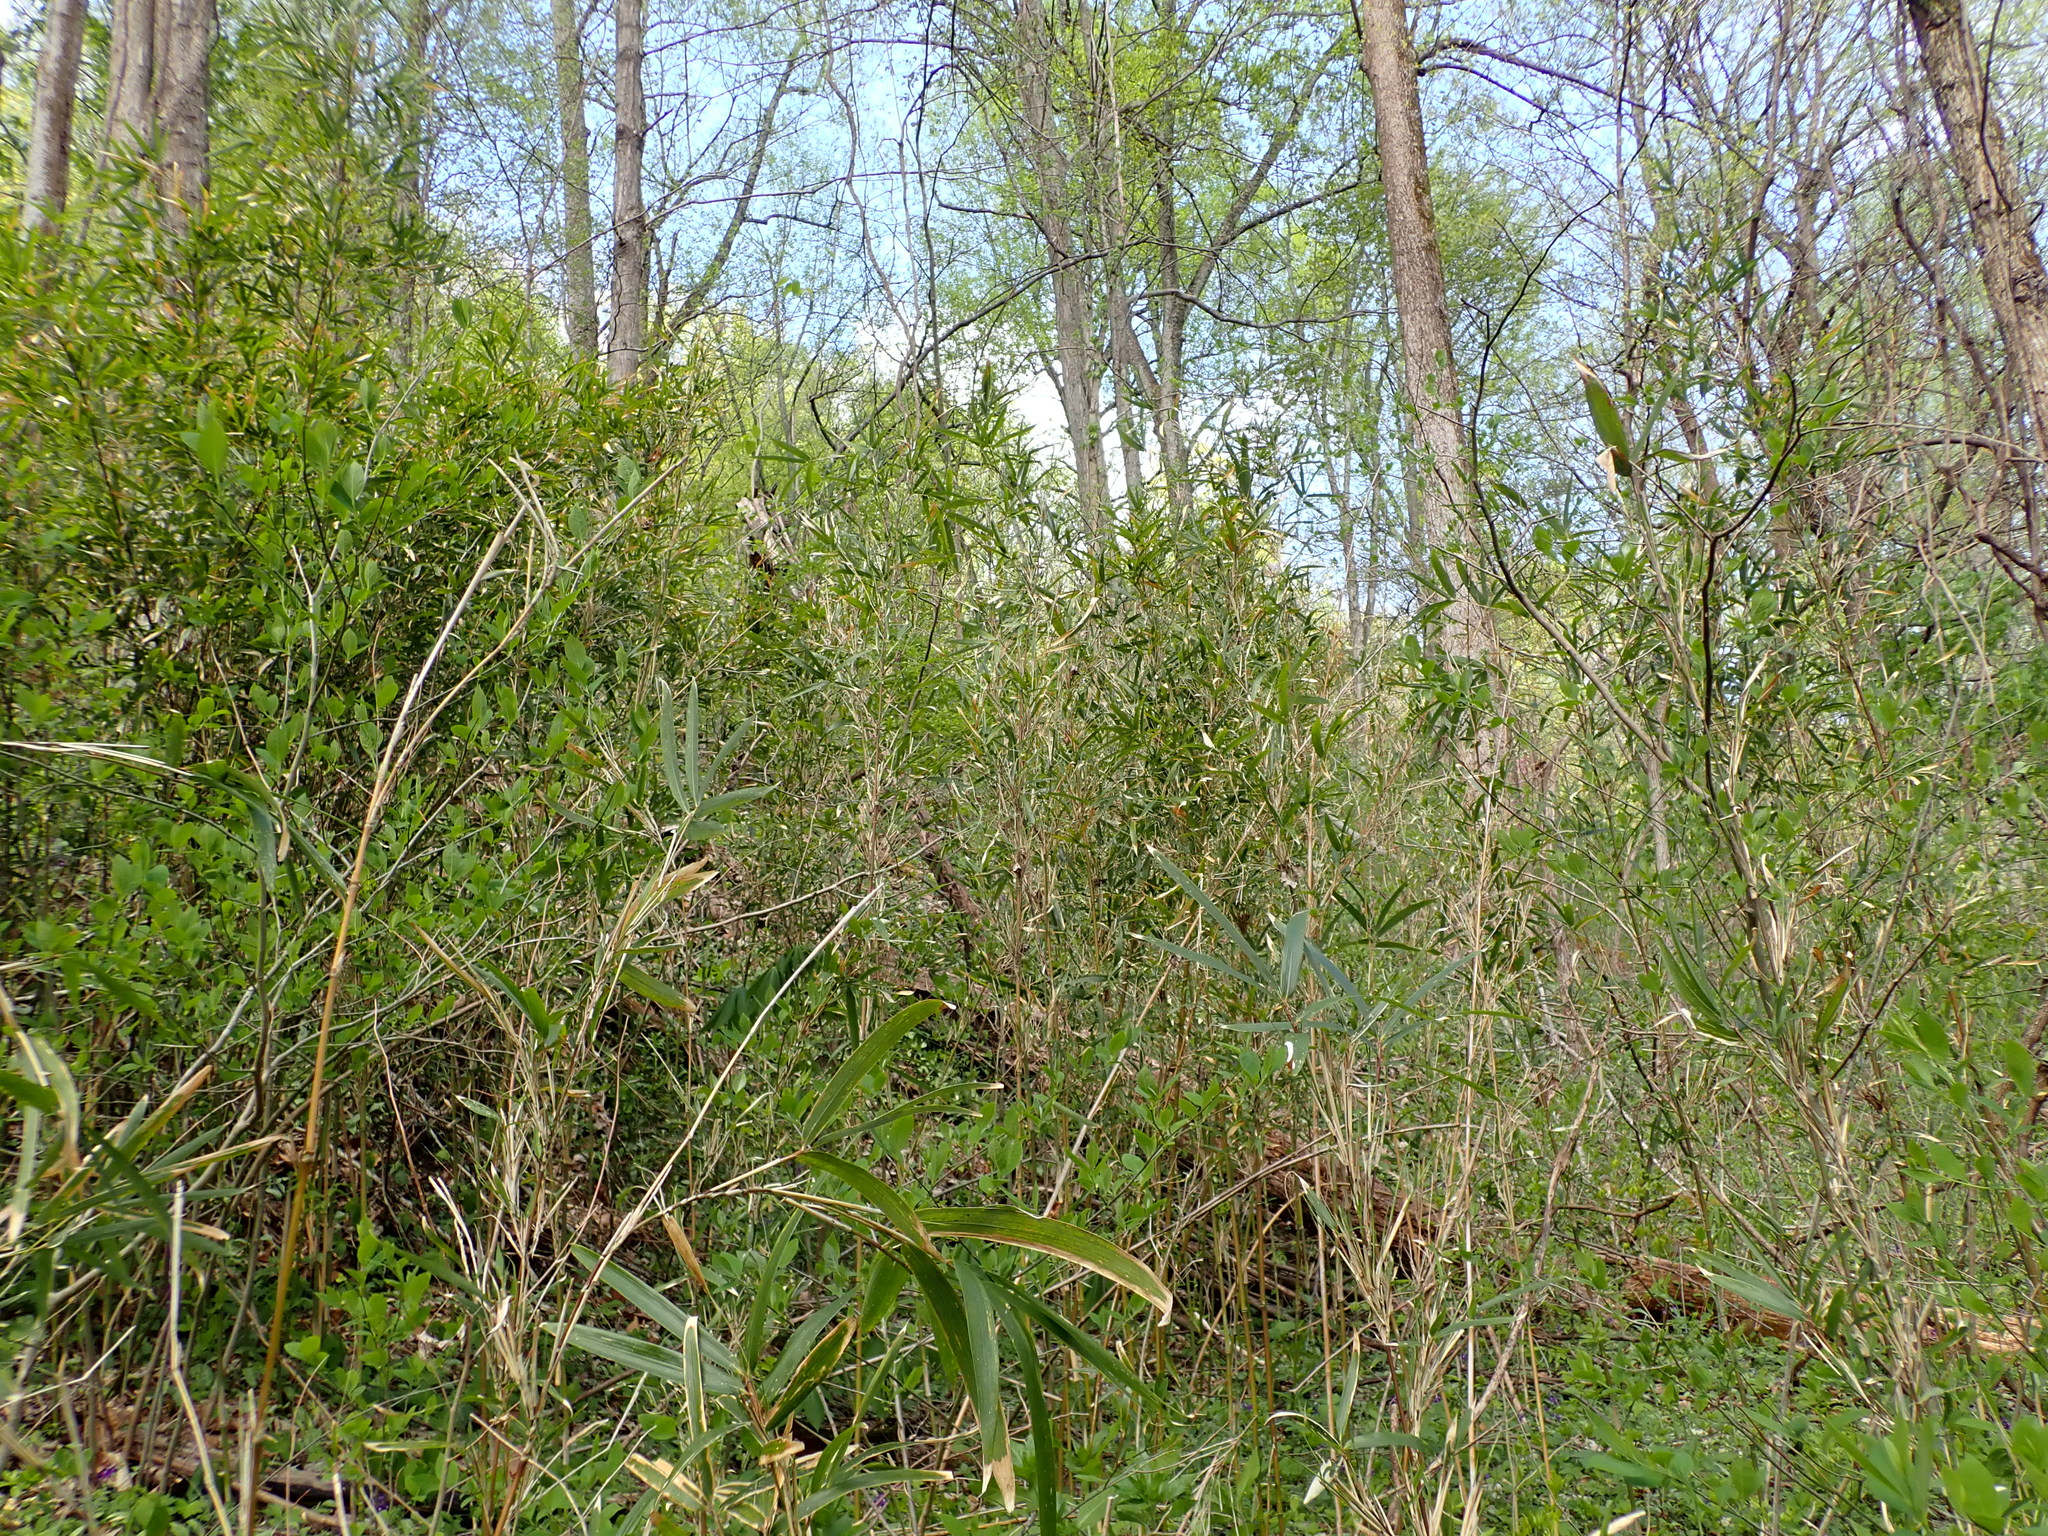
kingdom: Plantae
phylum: Tracheophyta
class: Liliopsida
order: Poales
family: Poaceae
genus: Arundinaria
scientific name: Arundinaria gigantea
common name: Giant cane
